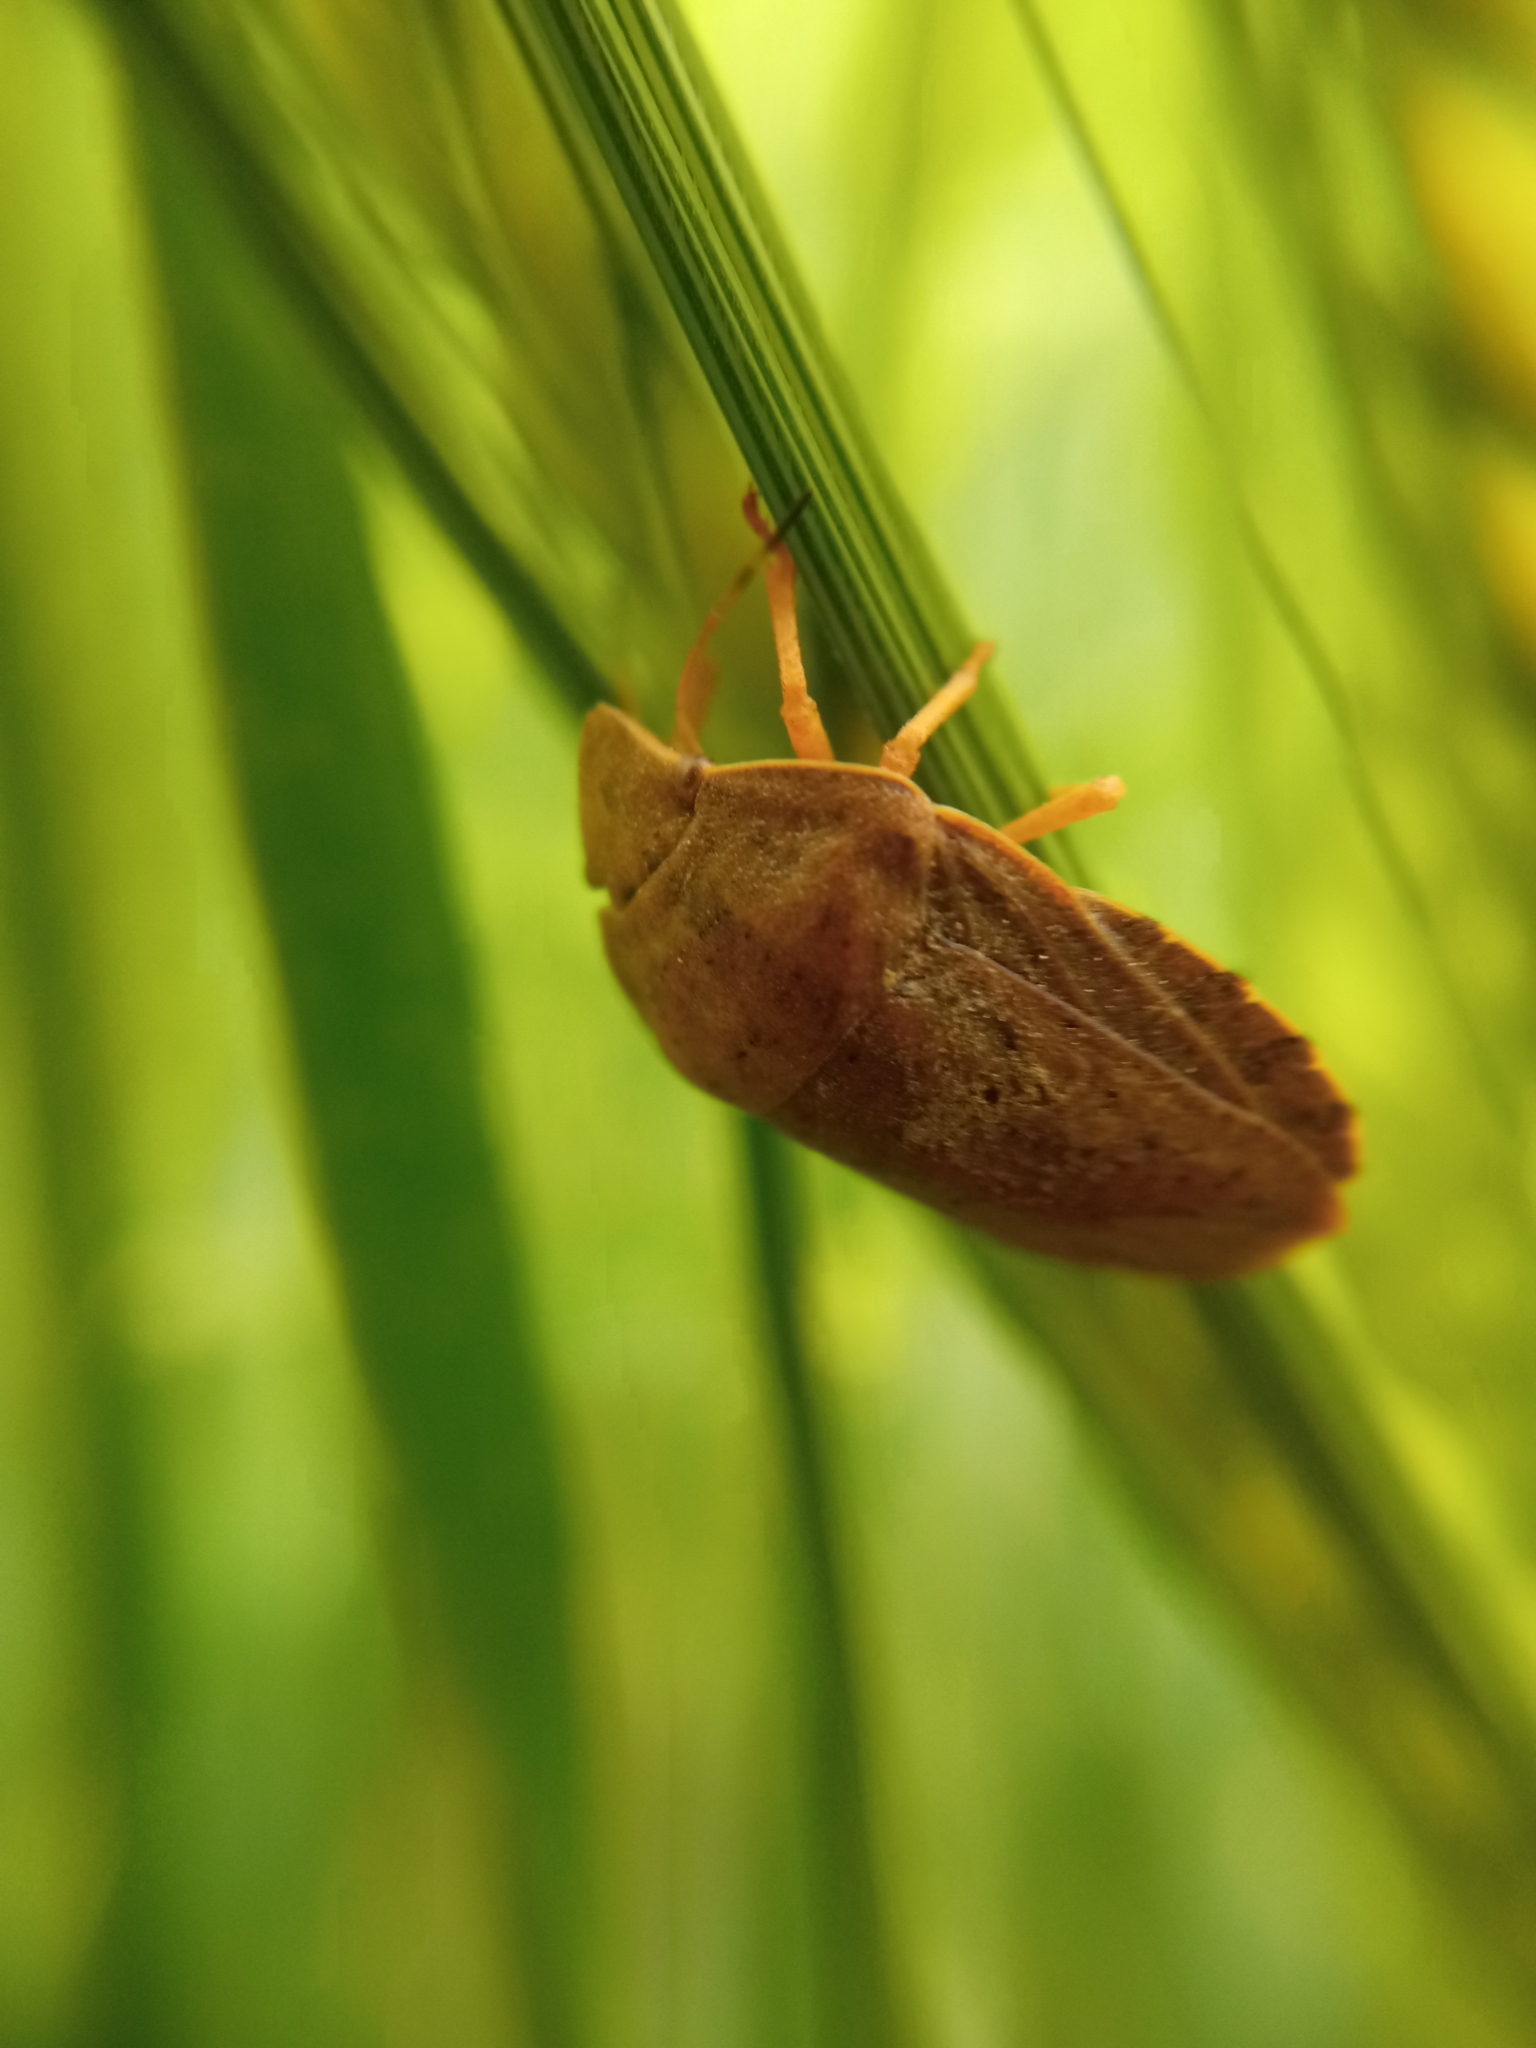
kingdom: Animalia
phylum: Arthropoda
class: Insecta
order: Hemiptera
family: Scutelleridae
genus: Eurygaster
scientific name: Eurygaster austriaca
